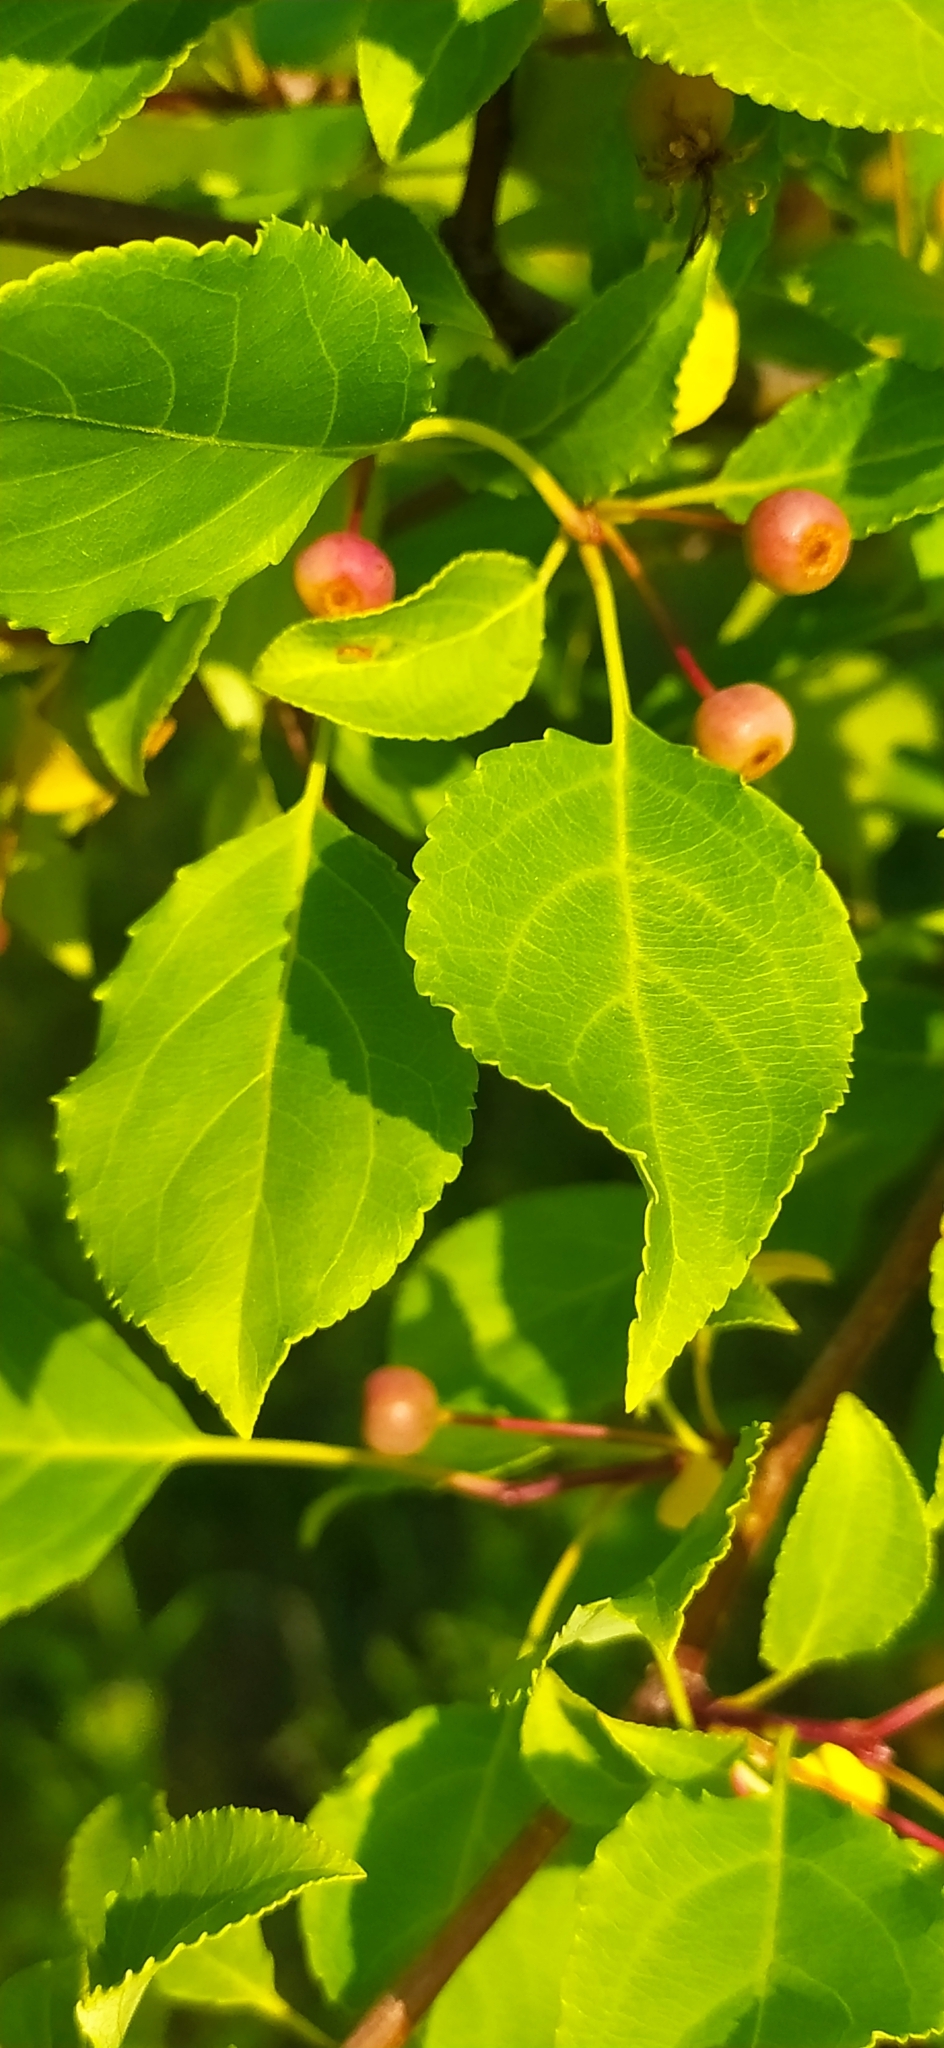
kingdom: Plantae
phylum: Tracheophyta
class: Magnoliopsida
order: Rosales
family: Rosaceae
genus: Malus
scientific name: Malus baccata
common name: Siberian crab
